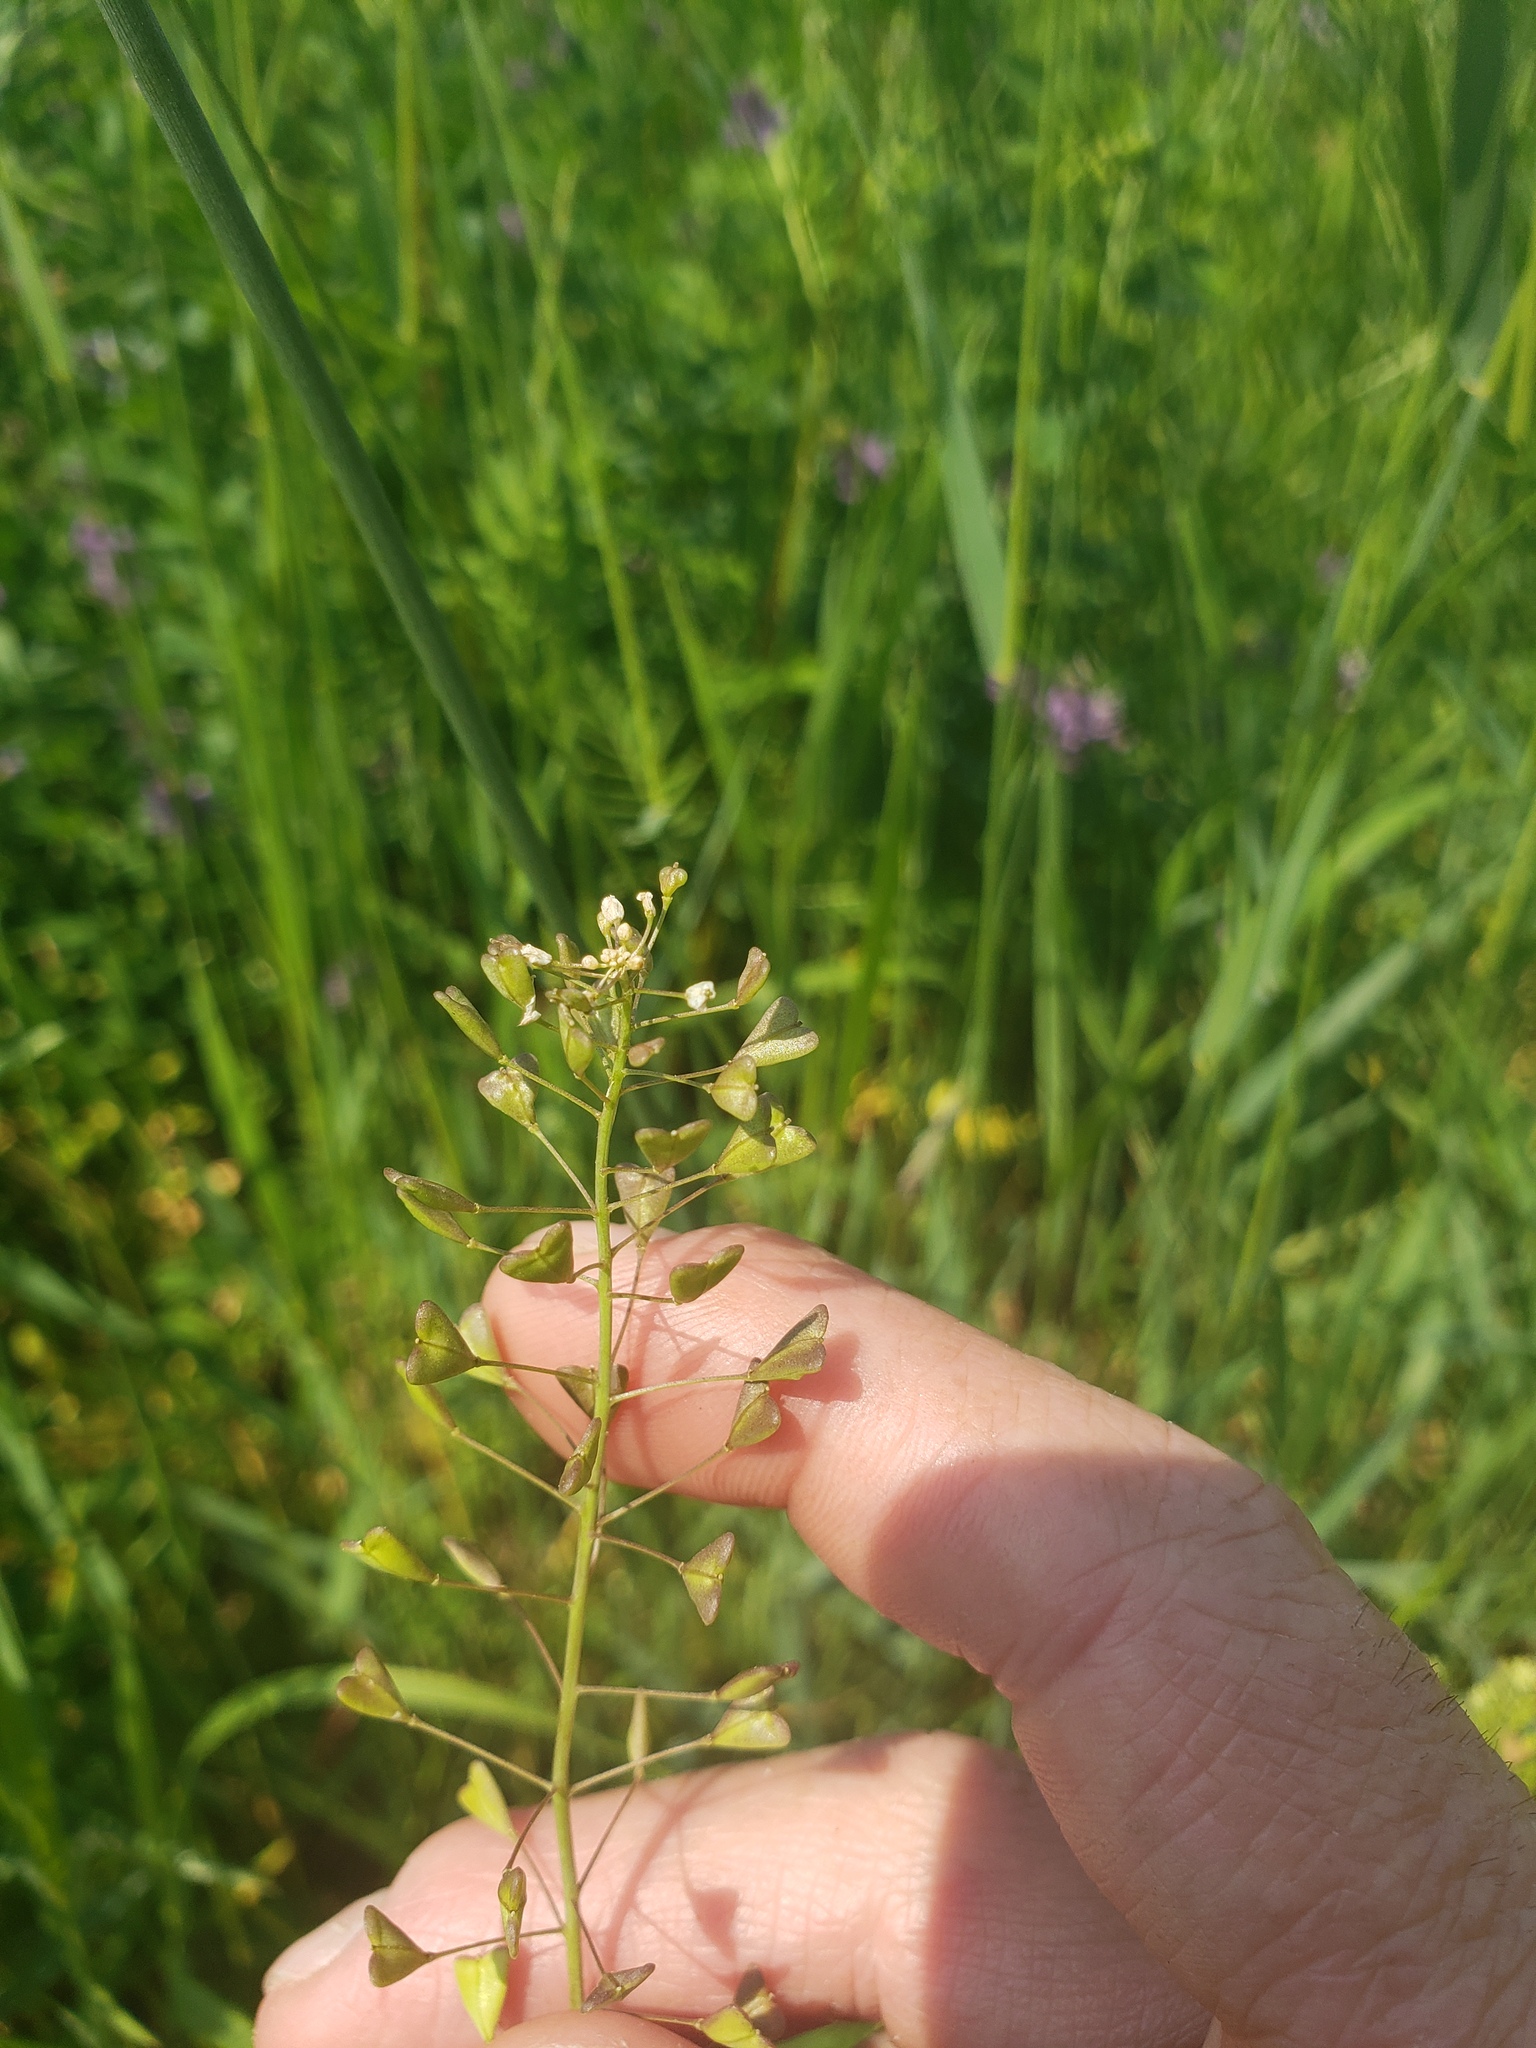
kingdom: Plantae
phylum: Tracheophyta
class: Magnoliopsida
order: Brassicales
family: Brassicaceae
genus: Capsella
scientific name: Capsella bursa-pastoris
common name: Shepherd's purse
